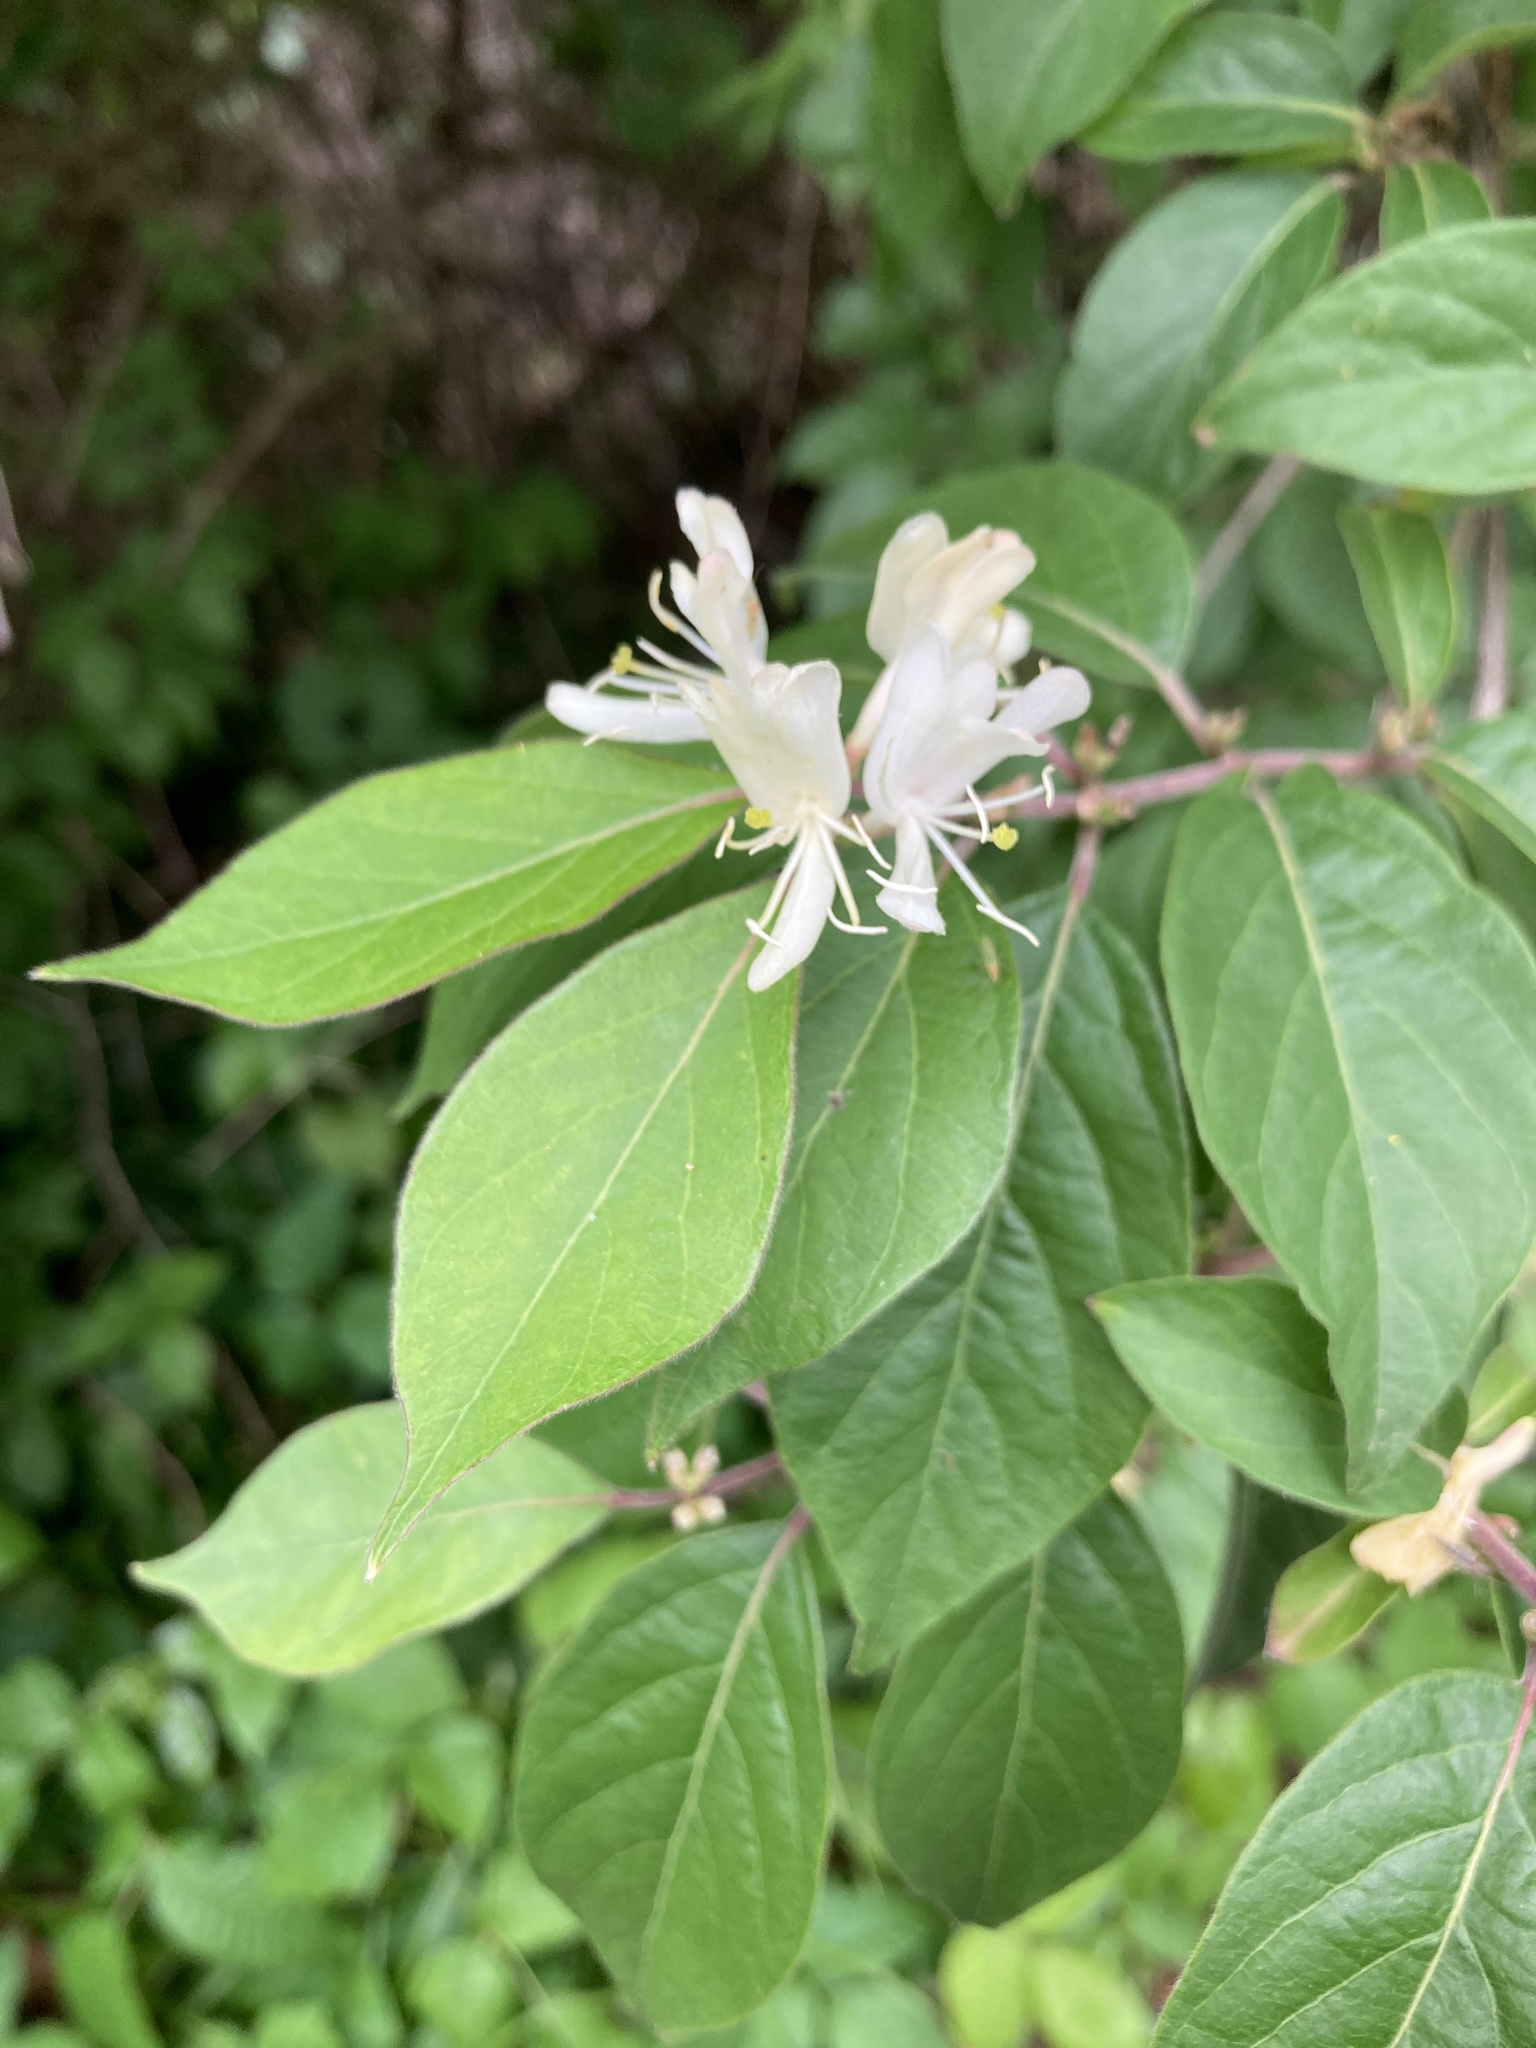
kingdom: Plantae
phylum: Tracheophyta
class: Magnoliopsida
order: Dipsacales
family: Caprifoliaceae
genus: Lonicera
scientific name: Lonicera maackii
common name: Amur honeysuckle
